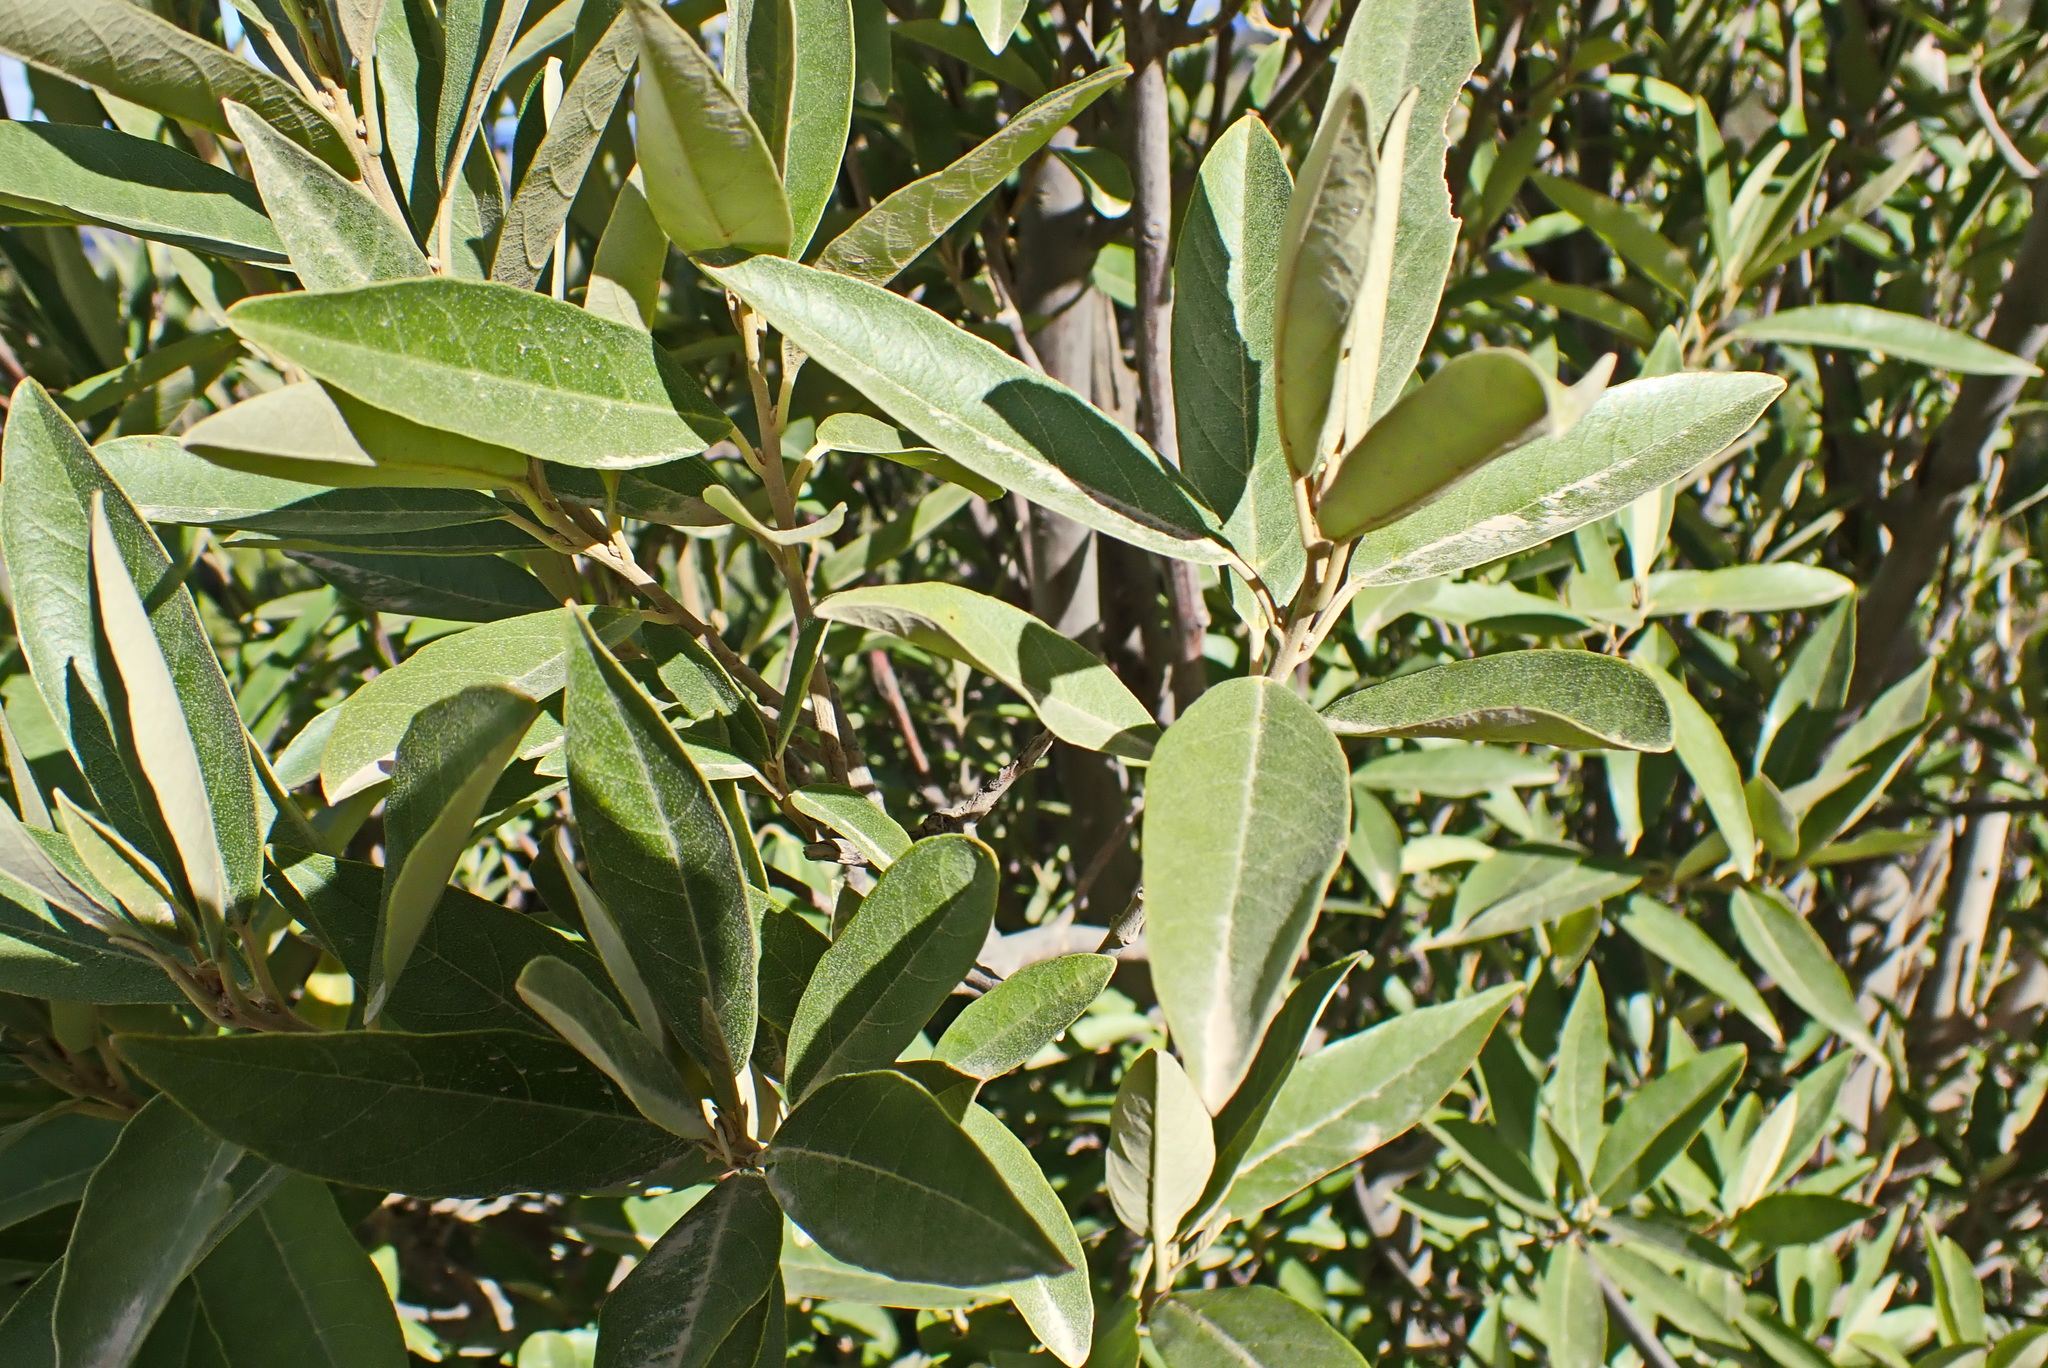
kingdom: Plantae
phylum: Tracheophyta
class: Magnoliopsida
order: Malpighiales
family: Achariaceae
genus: Kiggelaria
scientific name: Kiggelaria africana
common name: Wild peach
